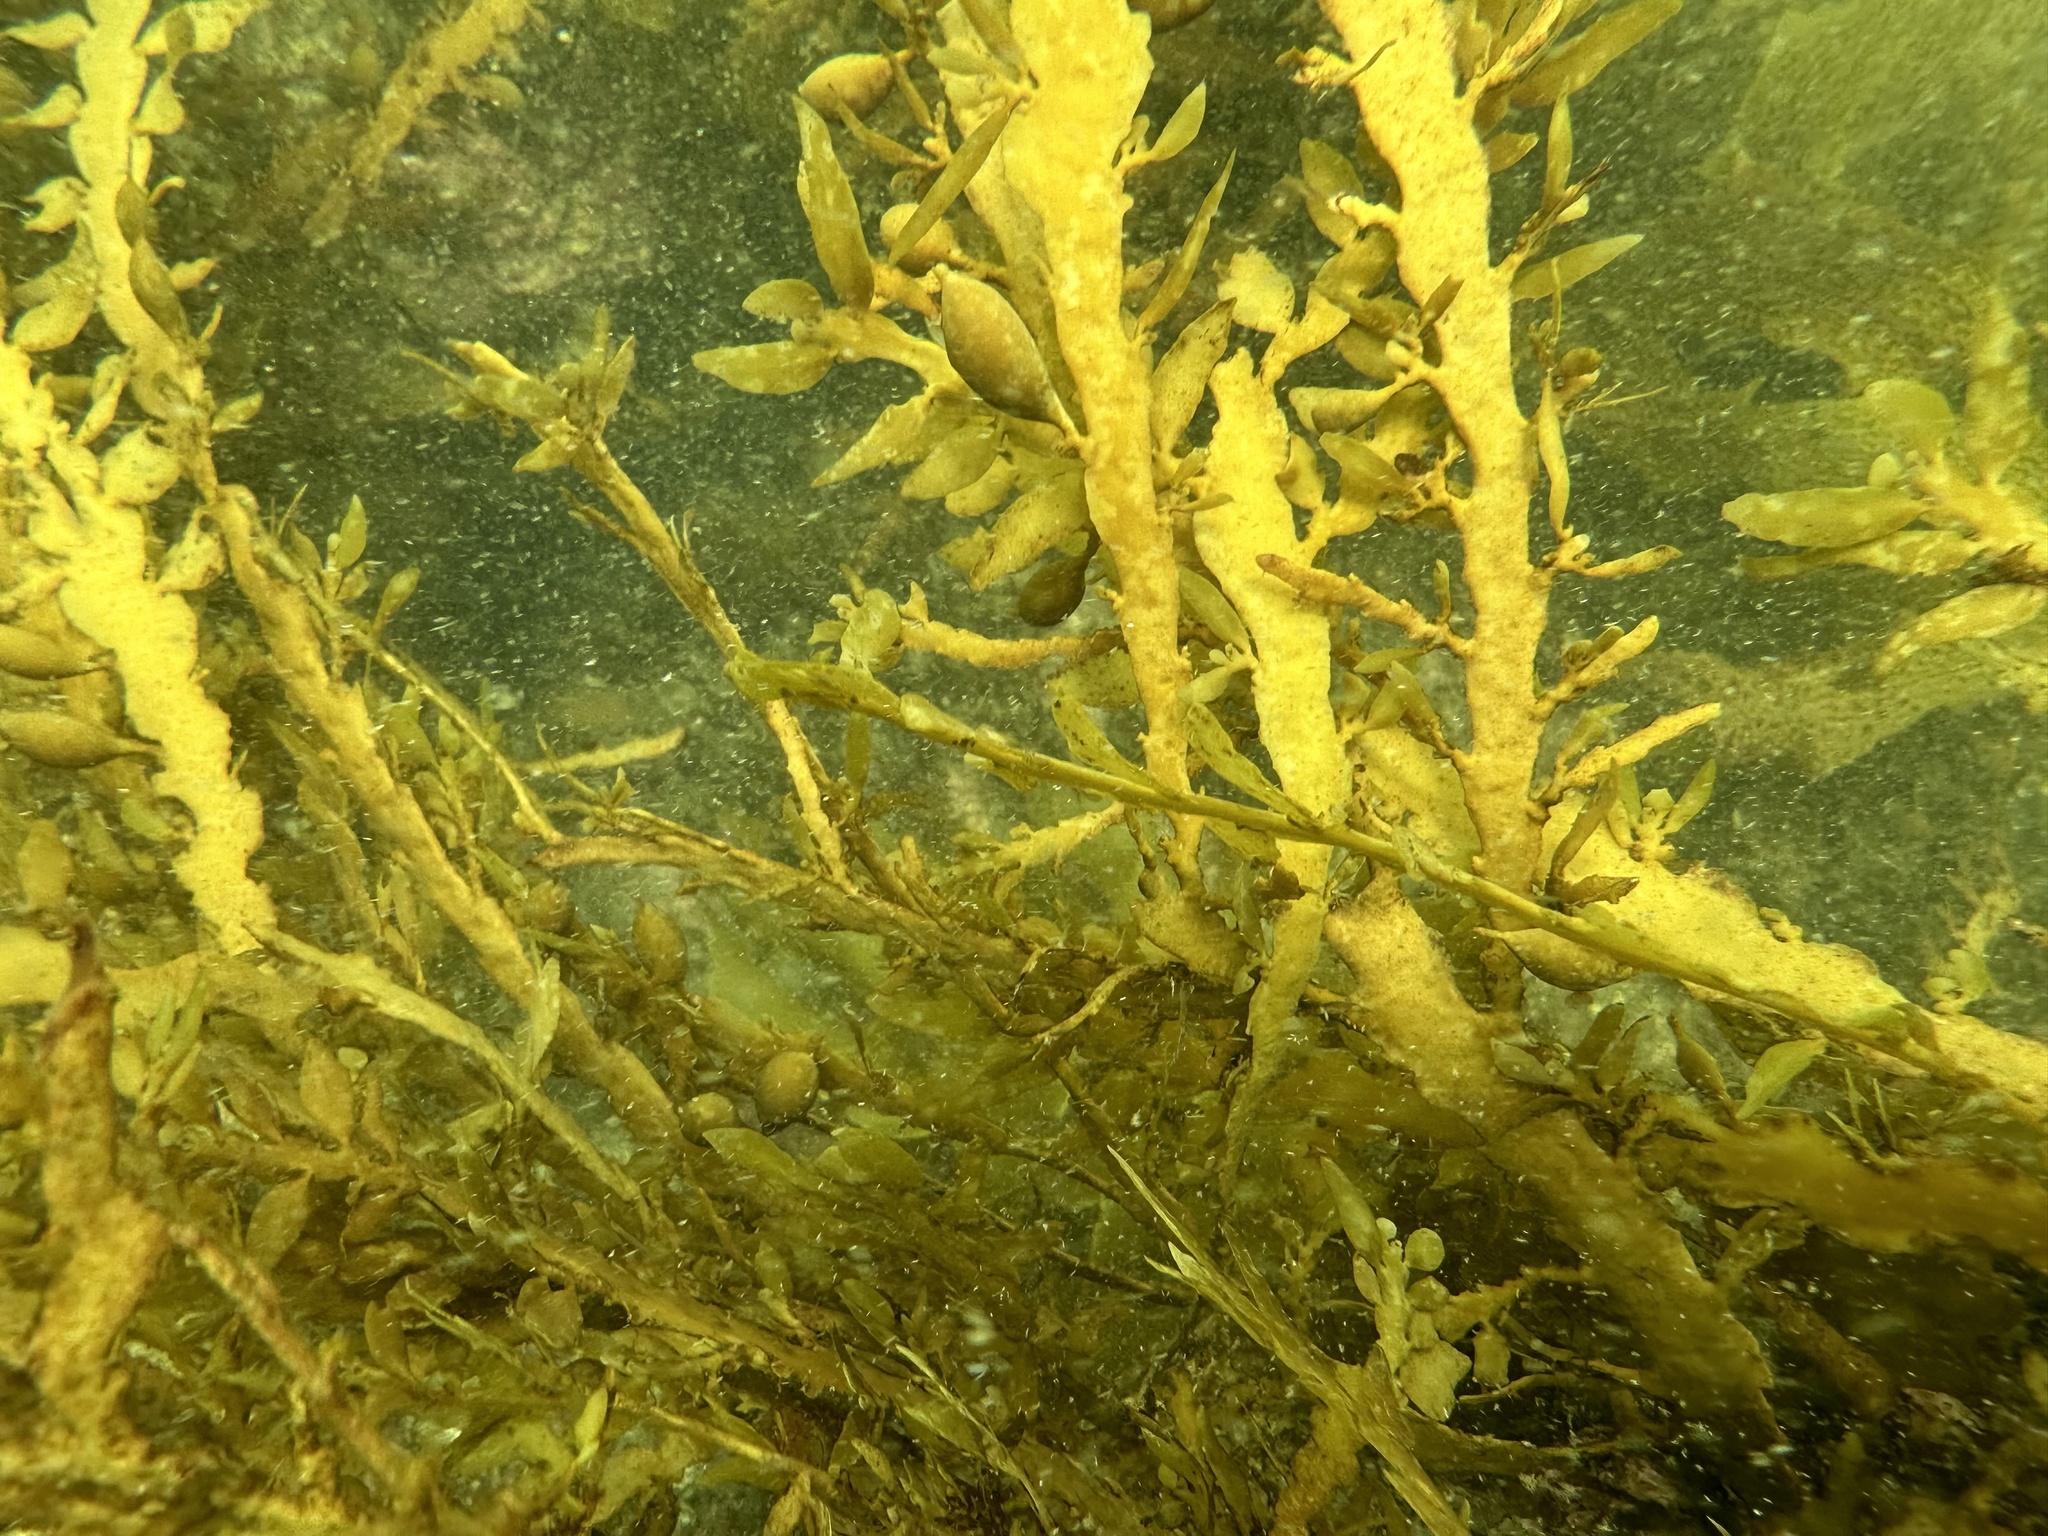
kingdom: Chromista
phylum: Ochrophyta
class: Phaeophyceae
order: Fucales
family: Sargassaceae
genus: Carpophyllum
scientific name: Carpophyllum maschalocarpum
